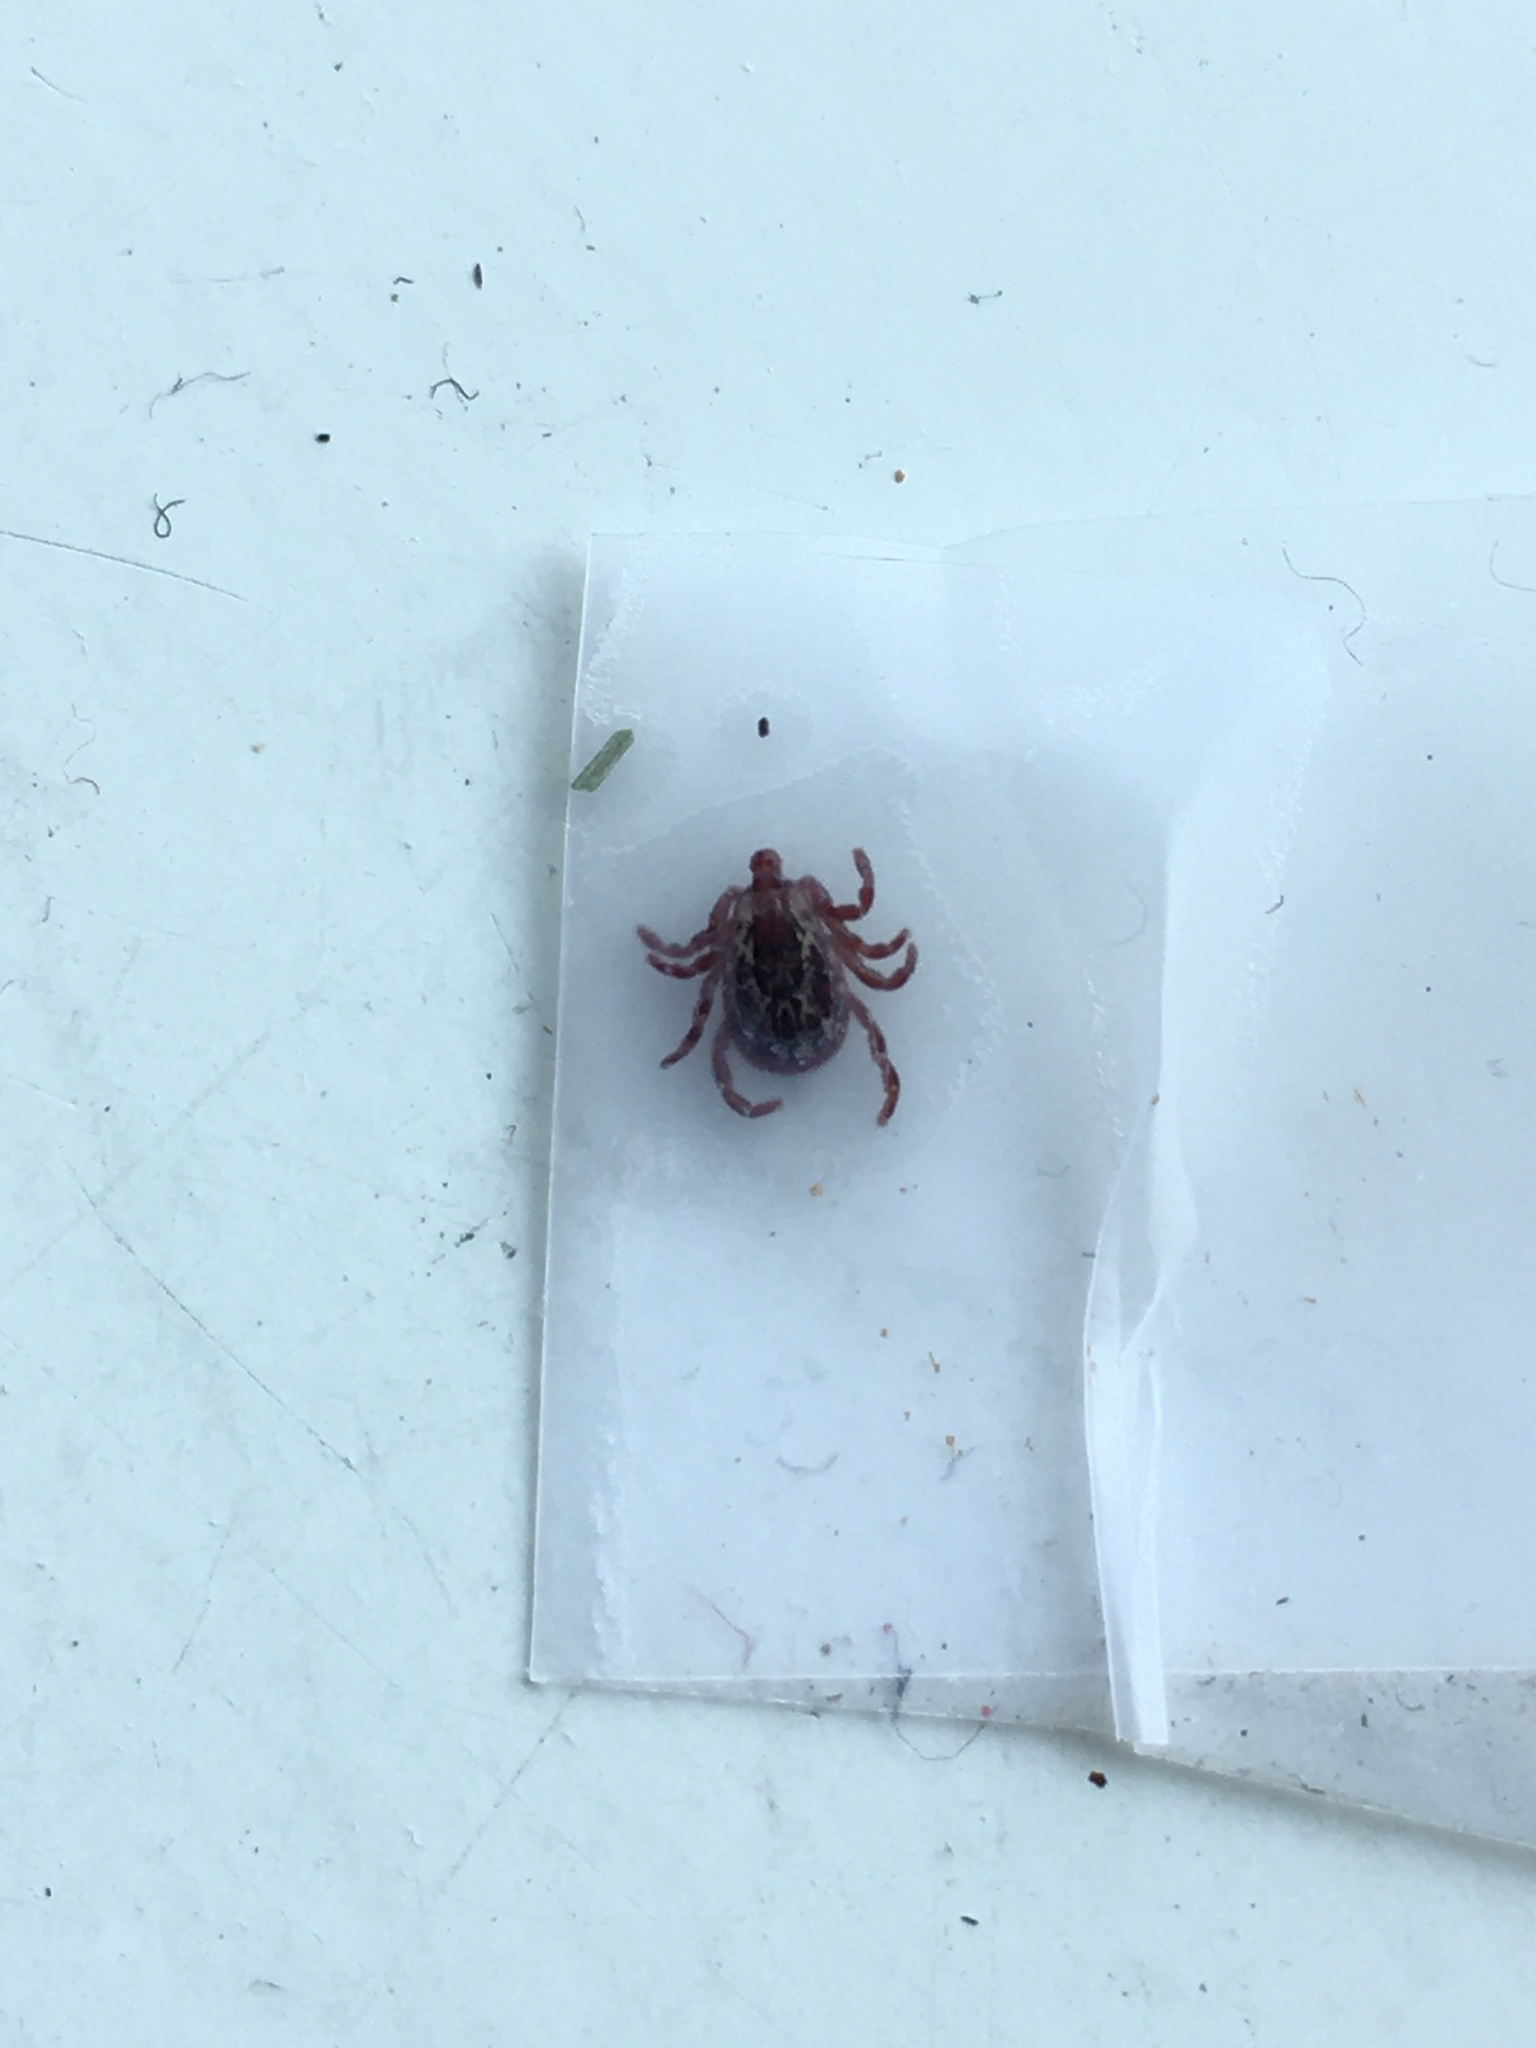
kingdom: Animalia
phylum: Arthropoda
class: Arachnida
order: Ixodida
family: Ixodidae
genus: Dermacentor
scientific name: Dermacentor variabilis
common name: American dog tick
